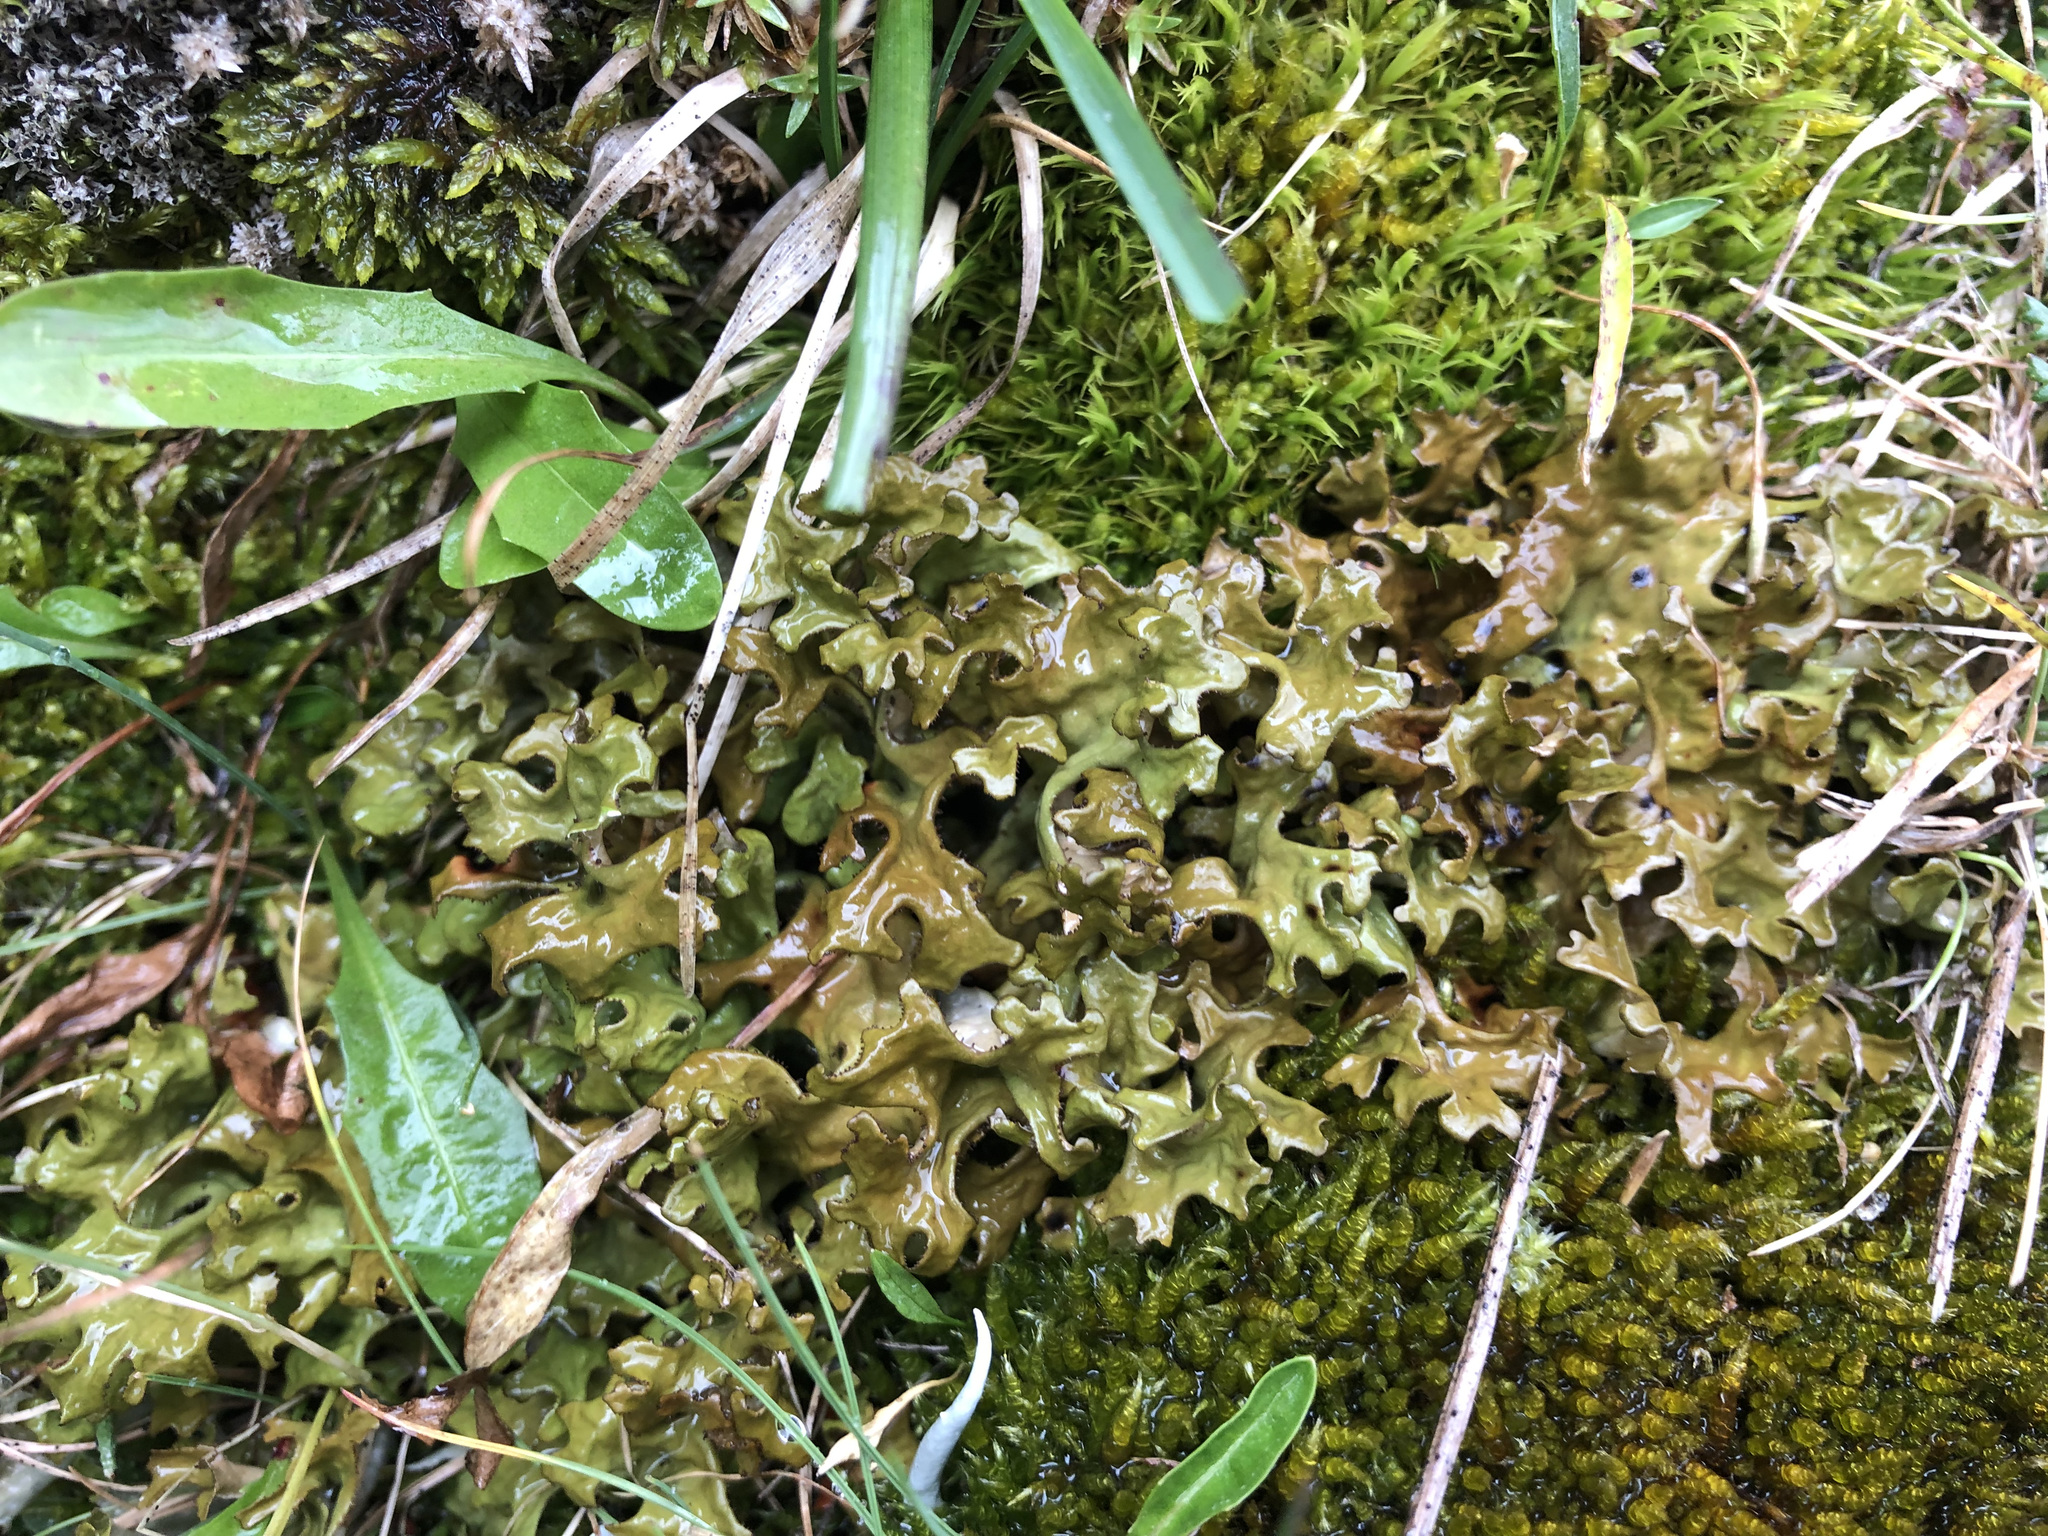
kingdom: Fungi
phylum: Ascomycota
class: Lecanoromycetes
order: Lecanorales
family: Parmeliaceae
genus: Cetraria
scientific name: Cetraria islandica
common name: Iceland lichen
